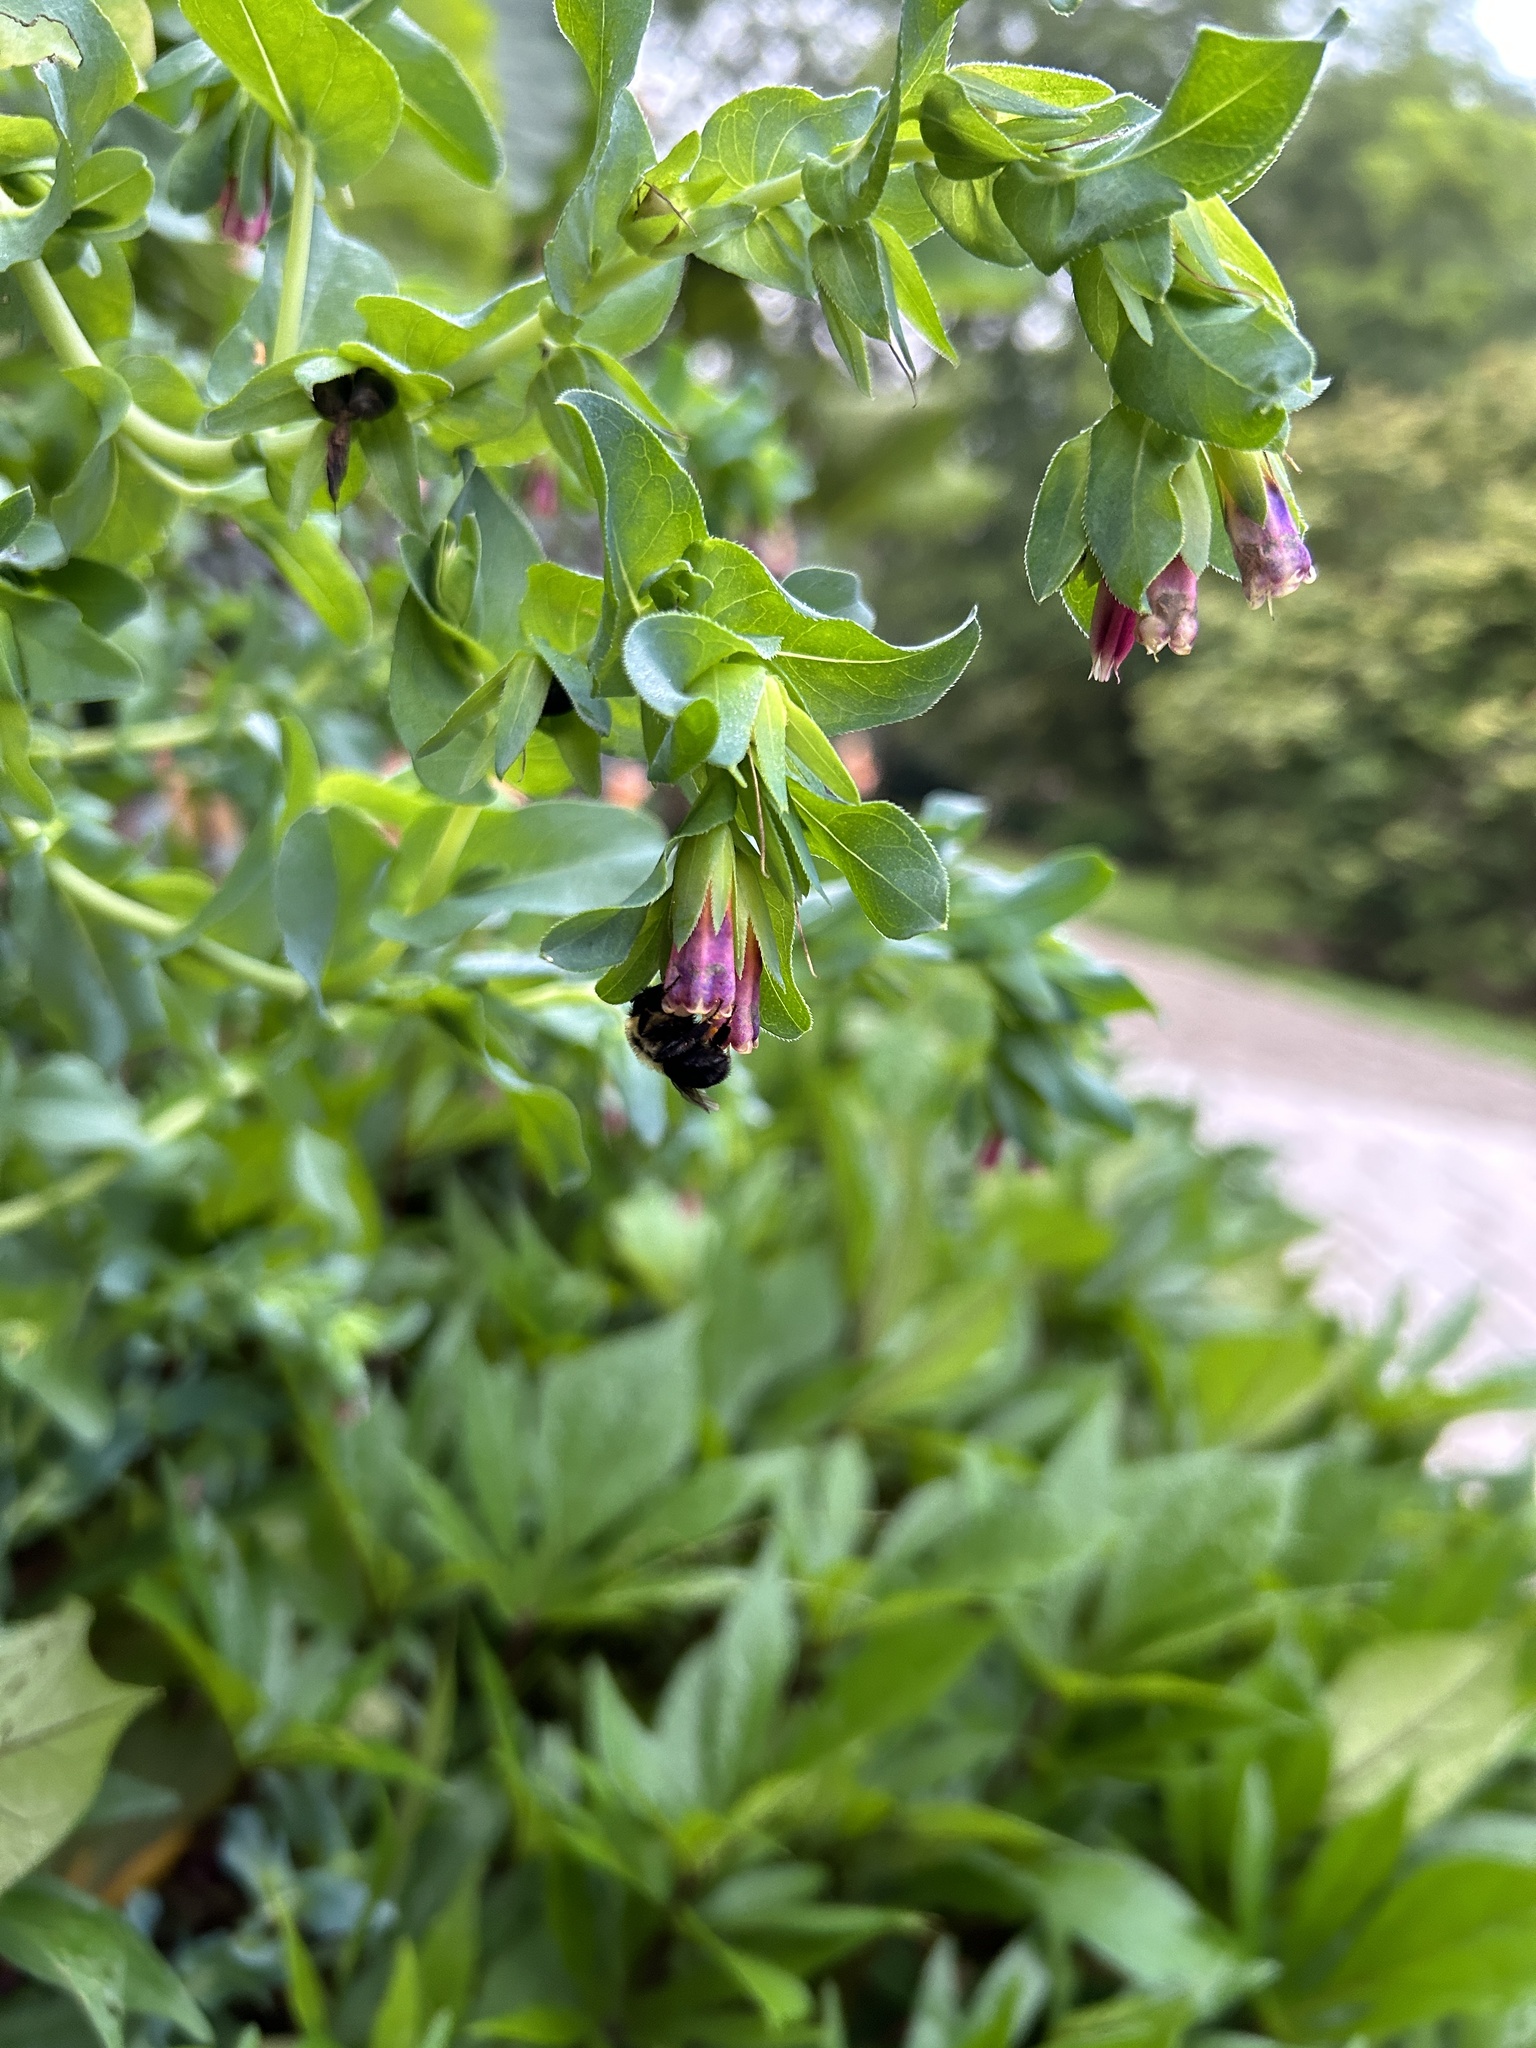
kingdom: Animalia
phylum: Arthropoda
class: Insecta
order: Hymenoptera
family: Apidae
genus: Bombus
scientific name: Bombus
